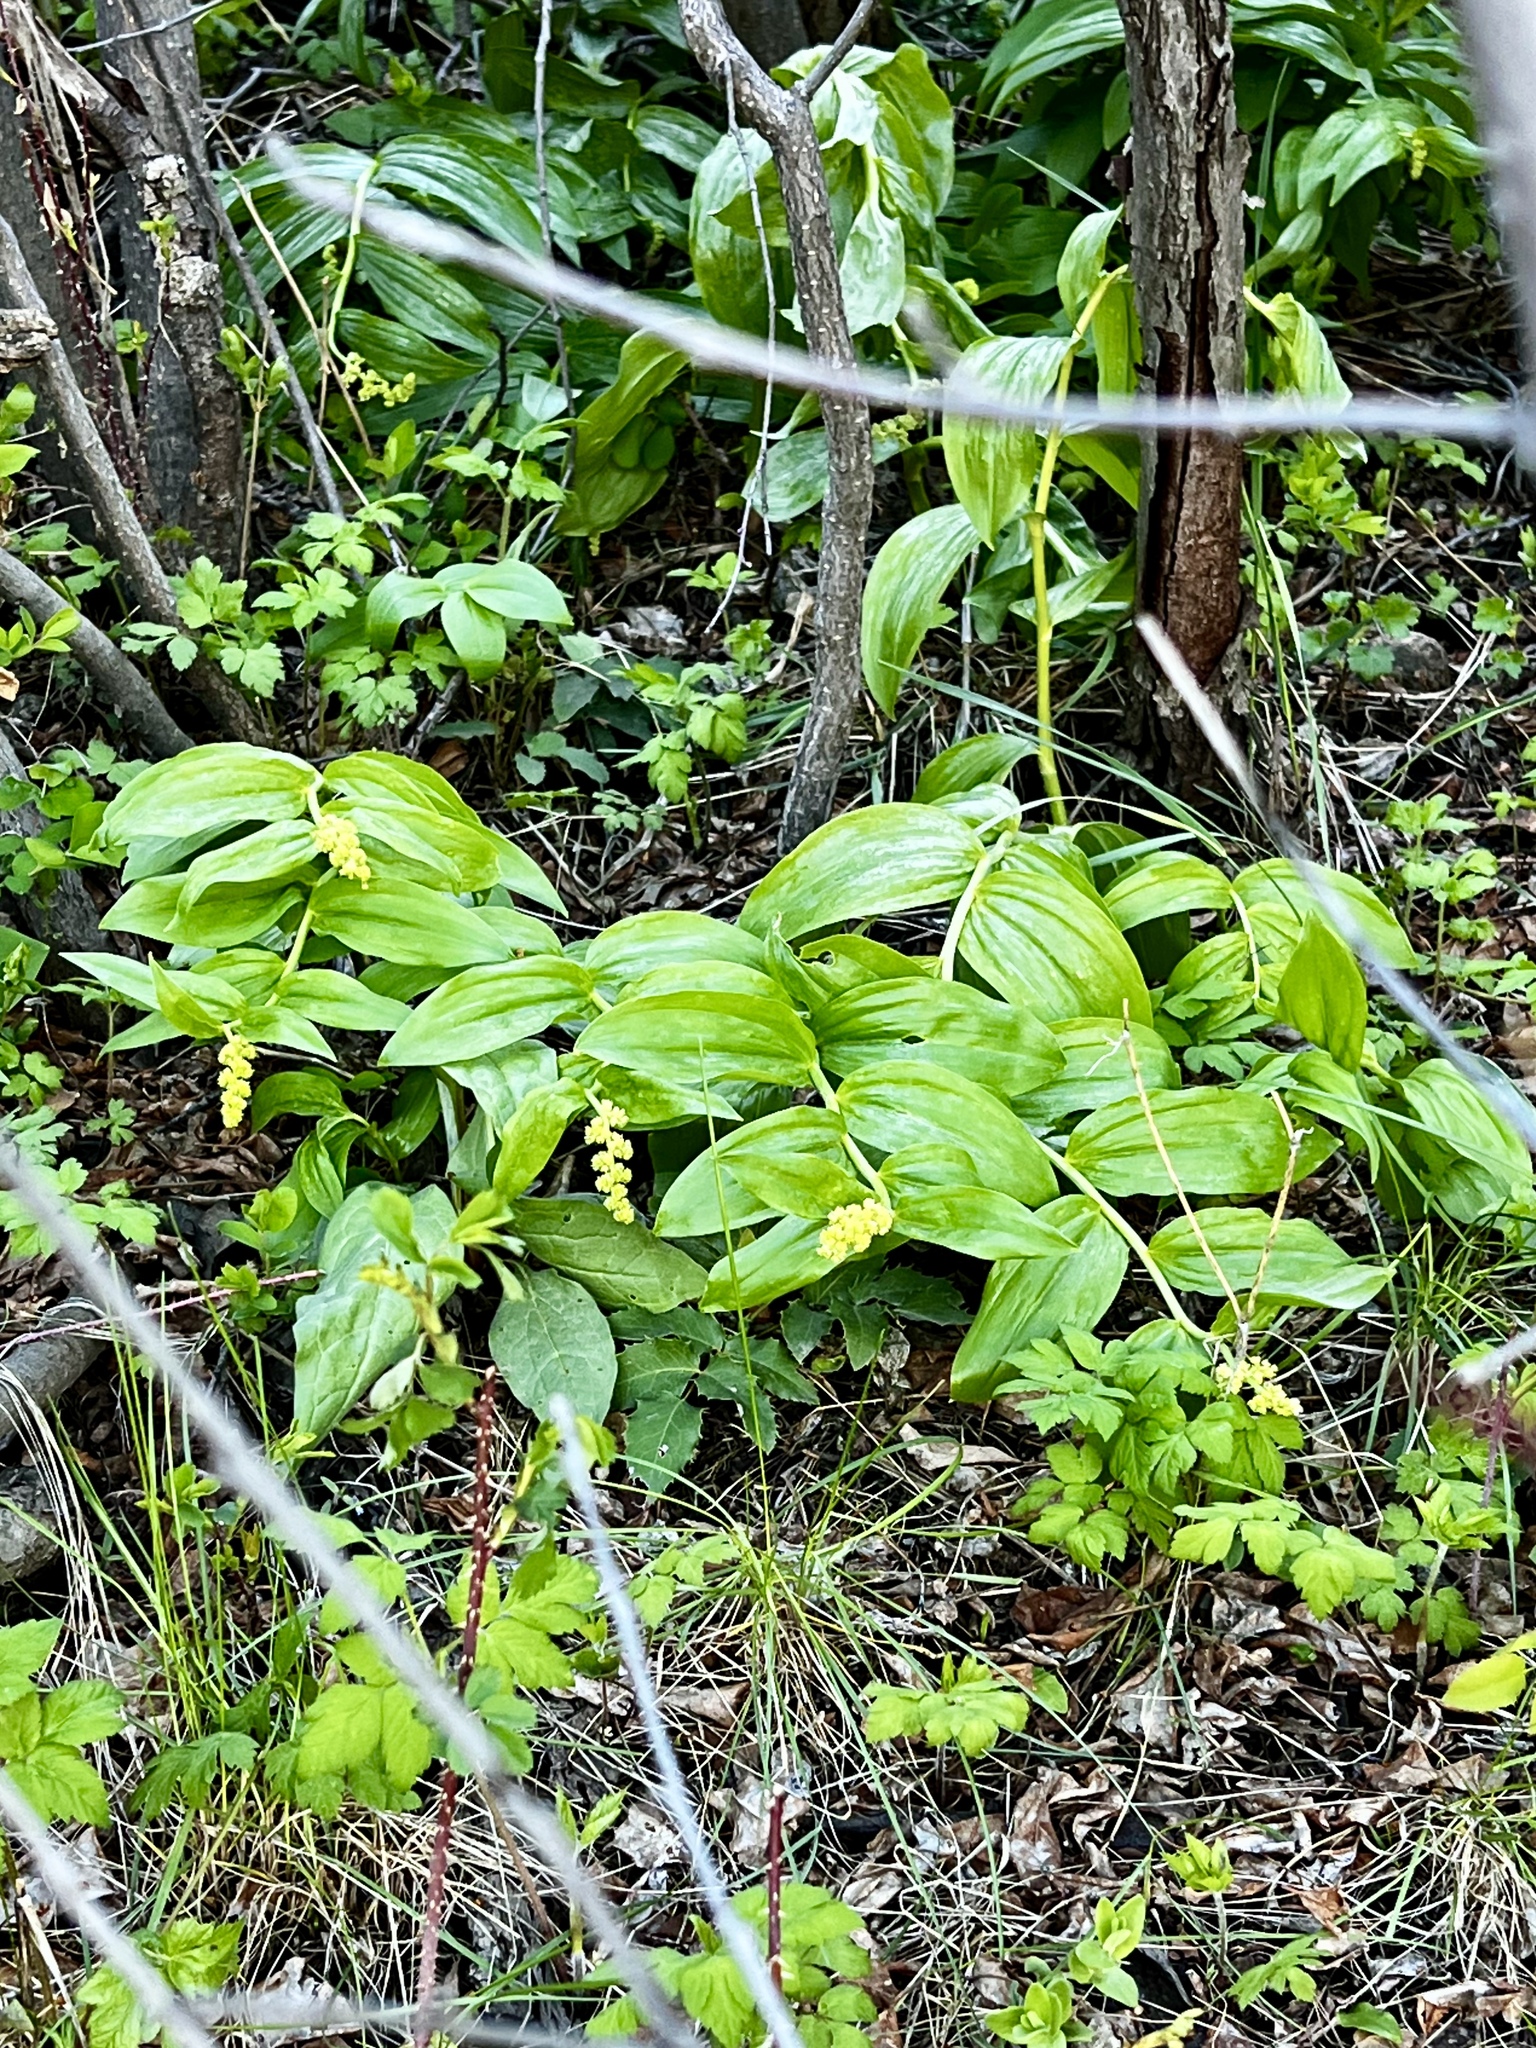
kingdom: Plantae
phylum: Tracheophyta
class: Liliopsida
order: Asparagales
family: Asparagaceae
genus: Maianthemum
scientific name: Maianthemum racemosum
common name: False spikenard
